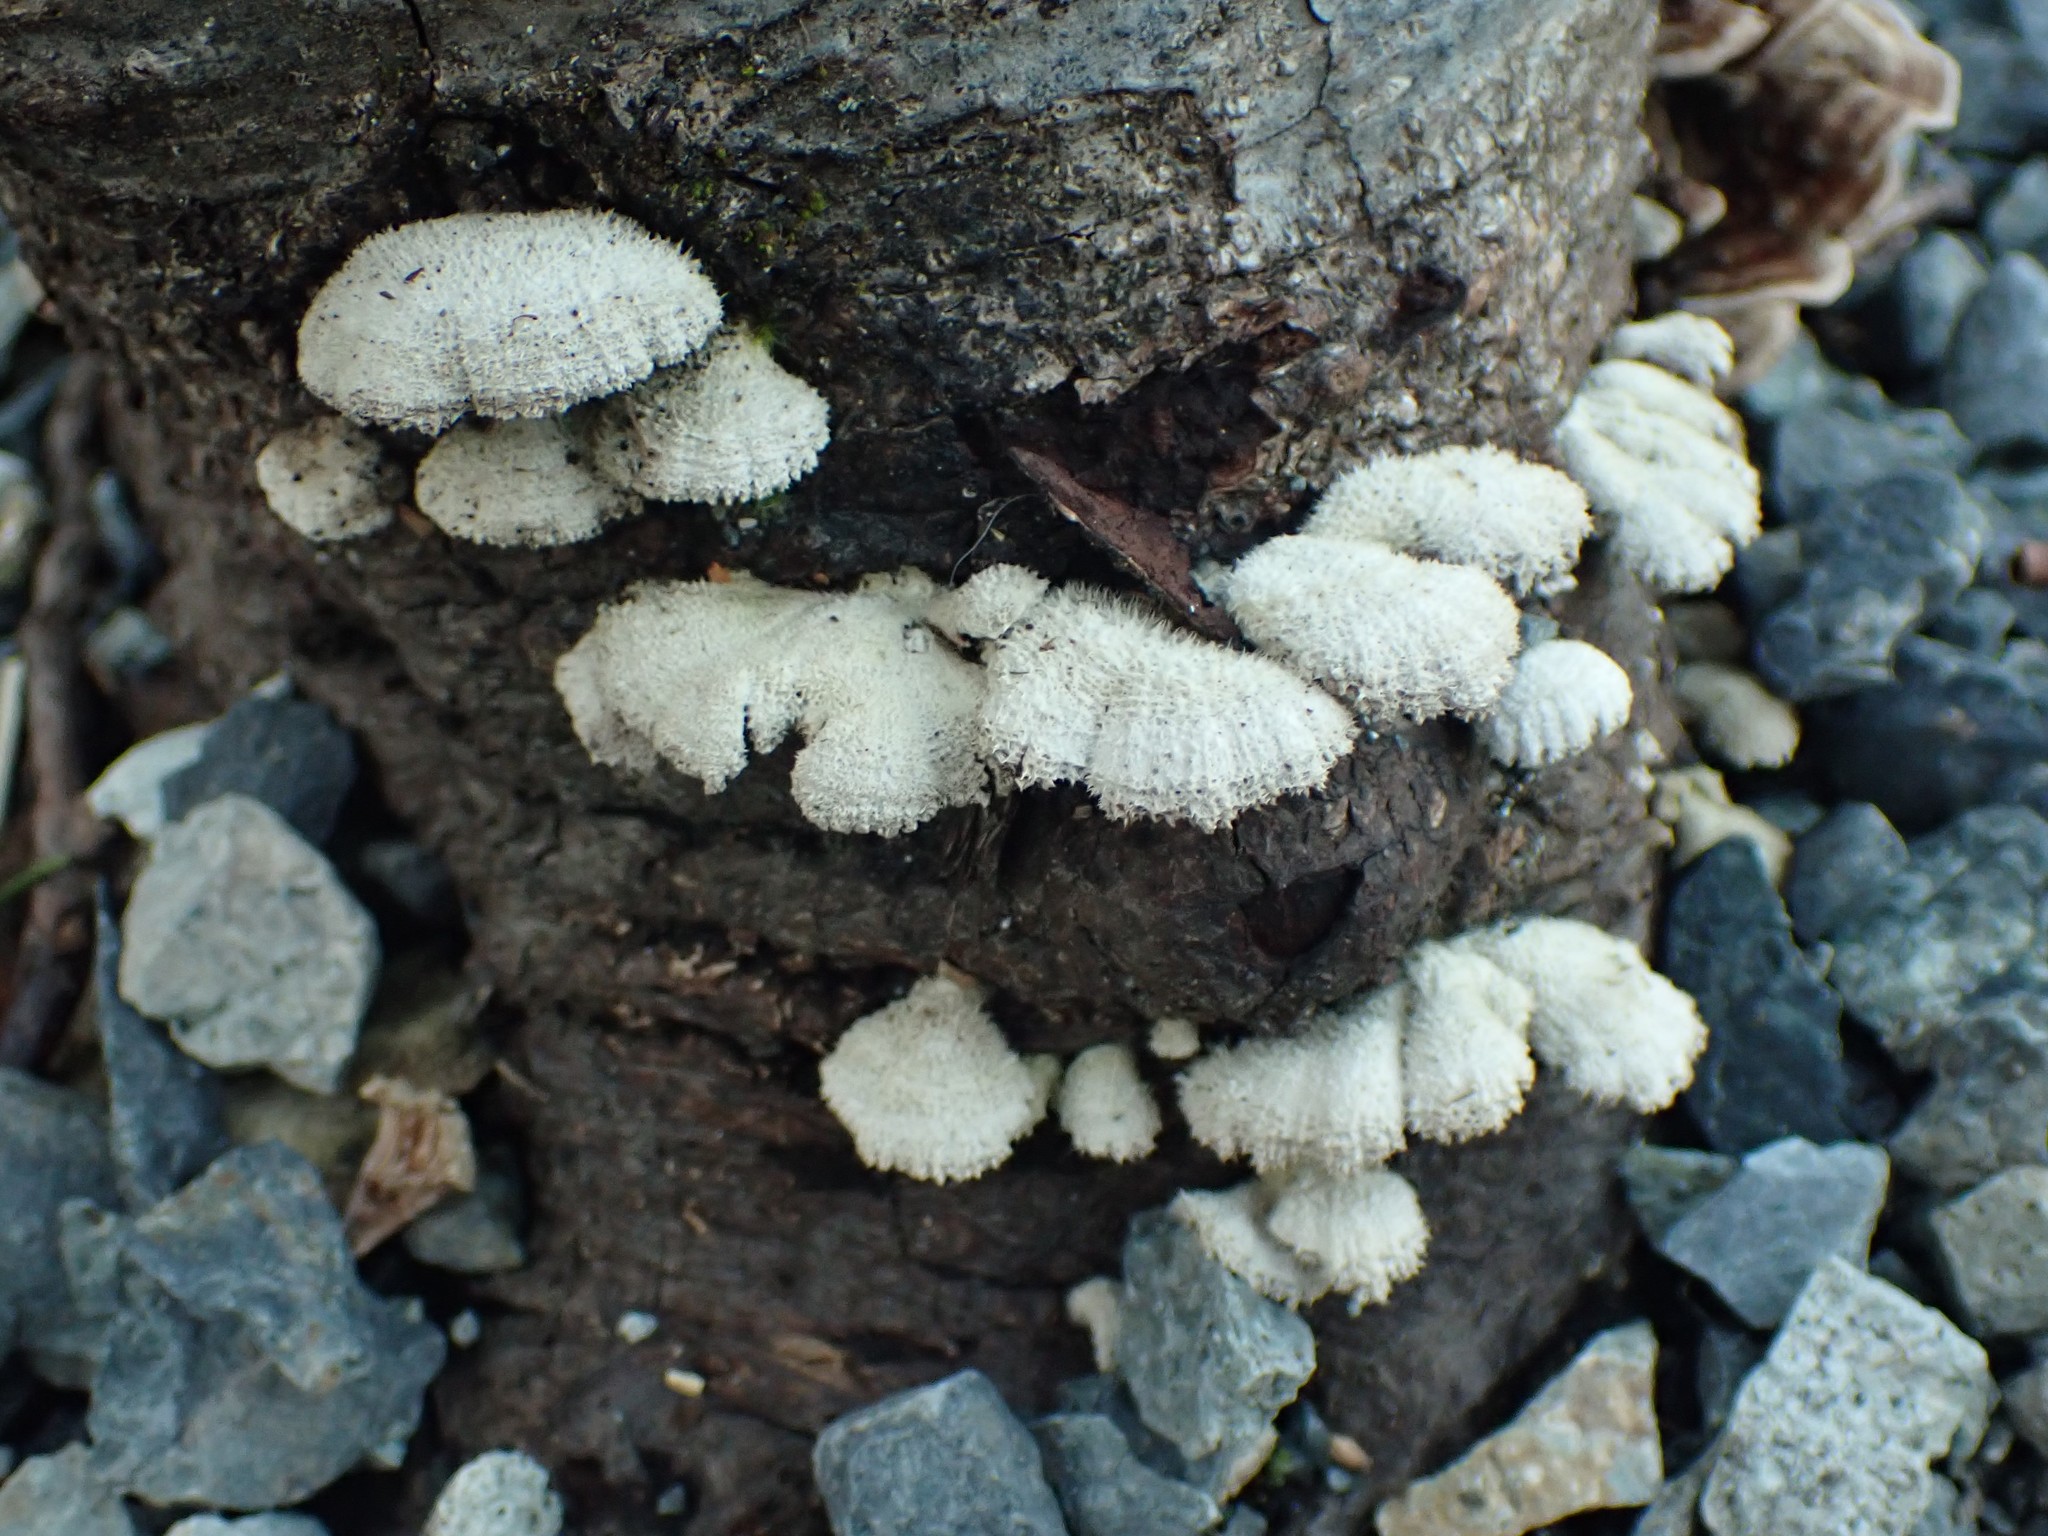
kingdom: Fungi
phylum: Basidiomycota
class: Agaricomycetes
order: Agaricales
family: Schizophyllaceae
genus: Schizophyllum
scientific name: Schizophyllum commune
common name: Common porecrust
